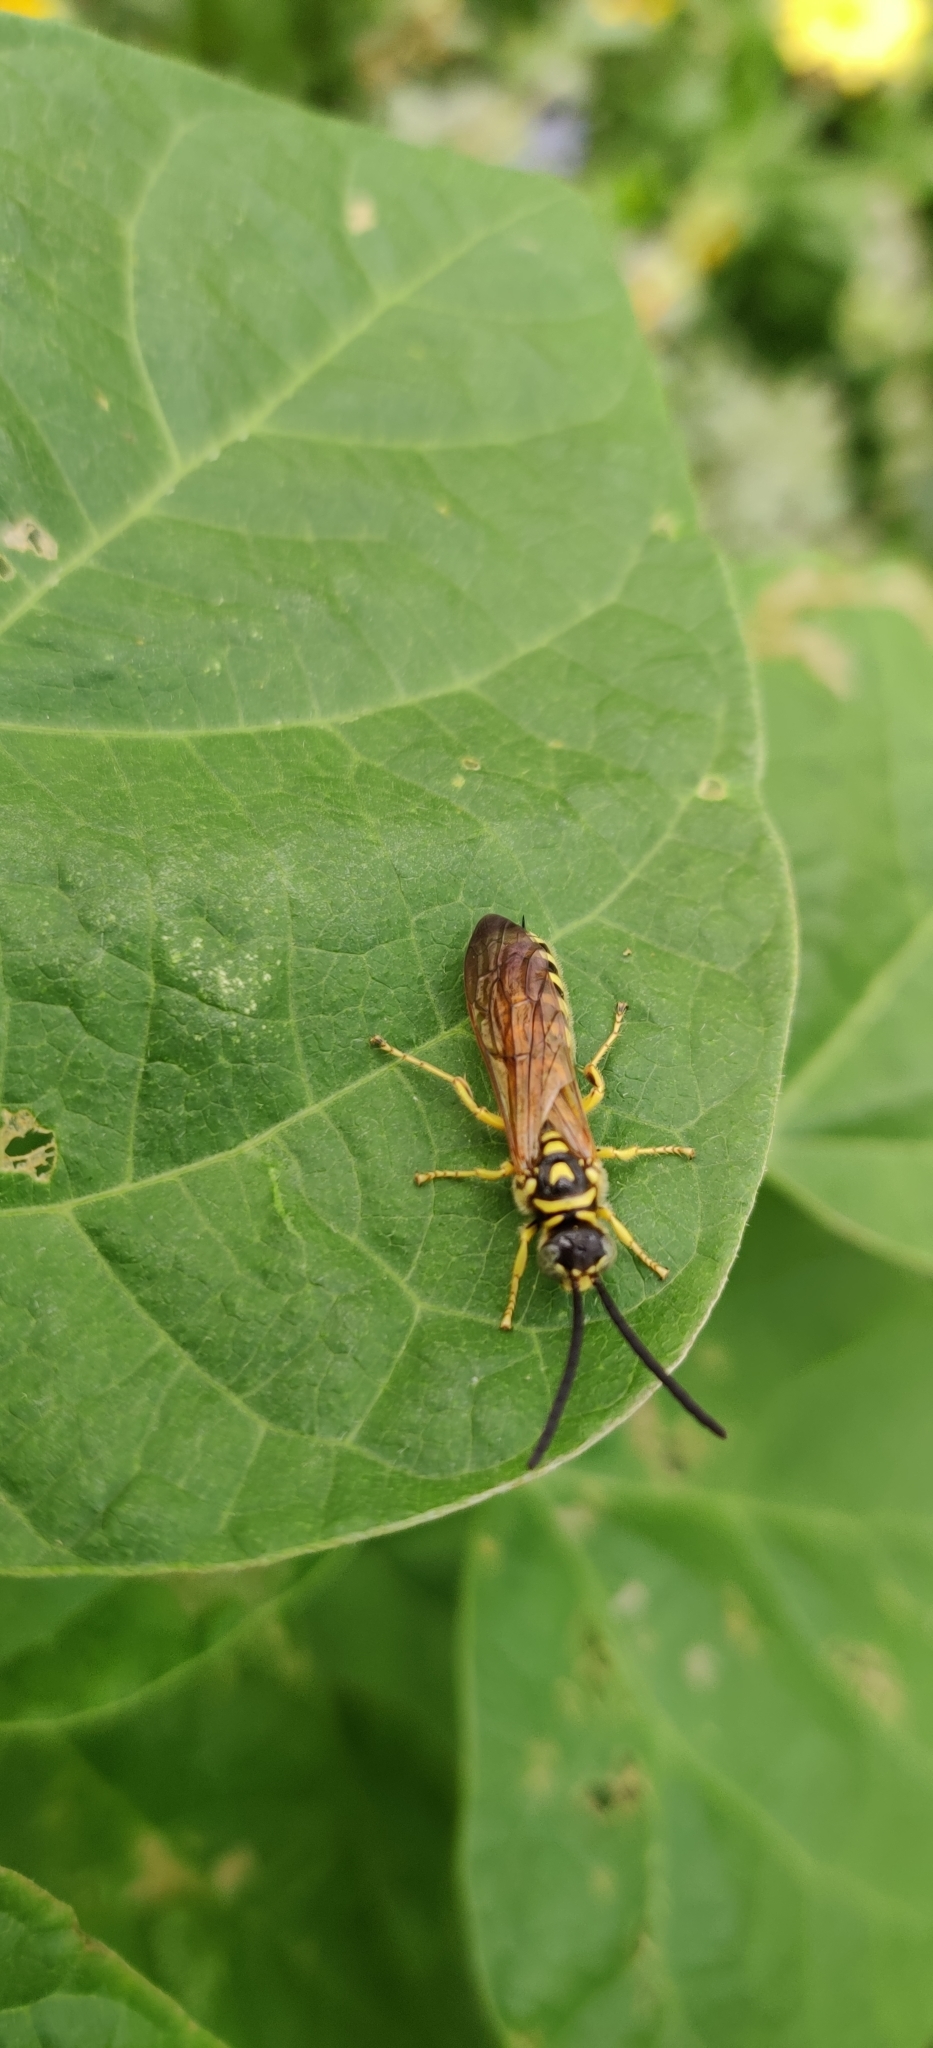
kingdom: Animalia
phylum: Arthropoda
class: Insecta
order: Hymenoptera
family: Tiphiidae
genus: Myzinum
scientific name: Myzinum quinquecinctum
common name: Five-banded thynnid wasp
